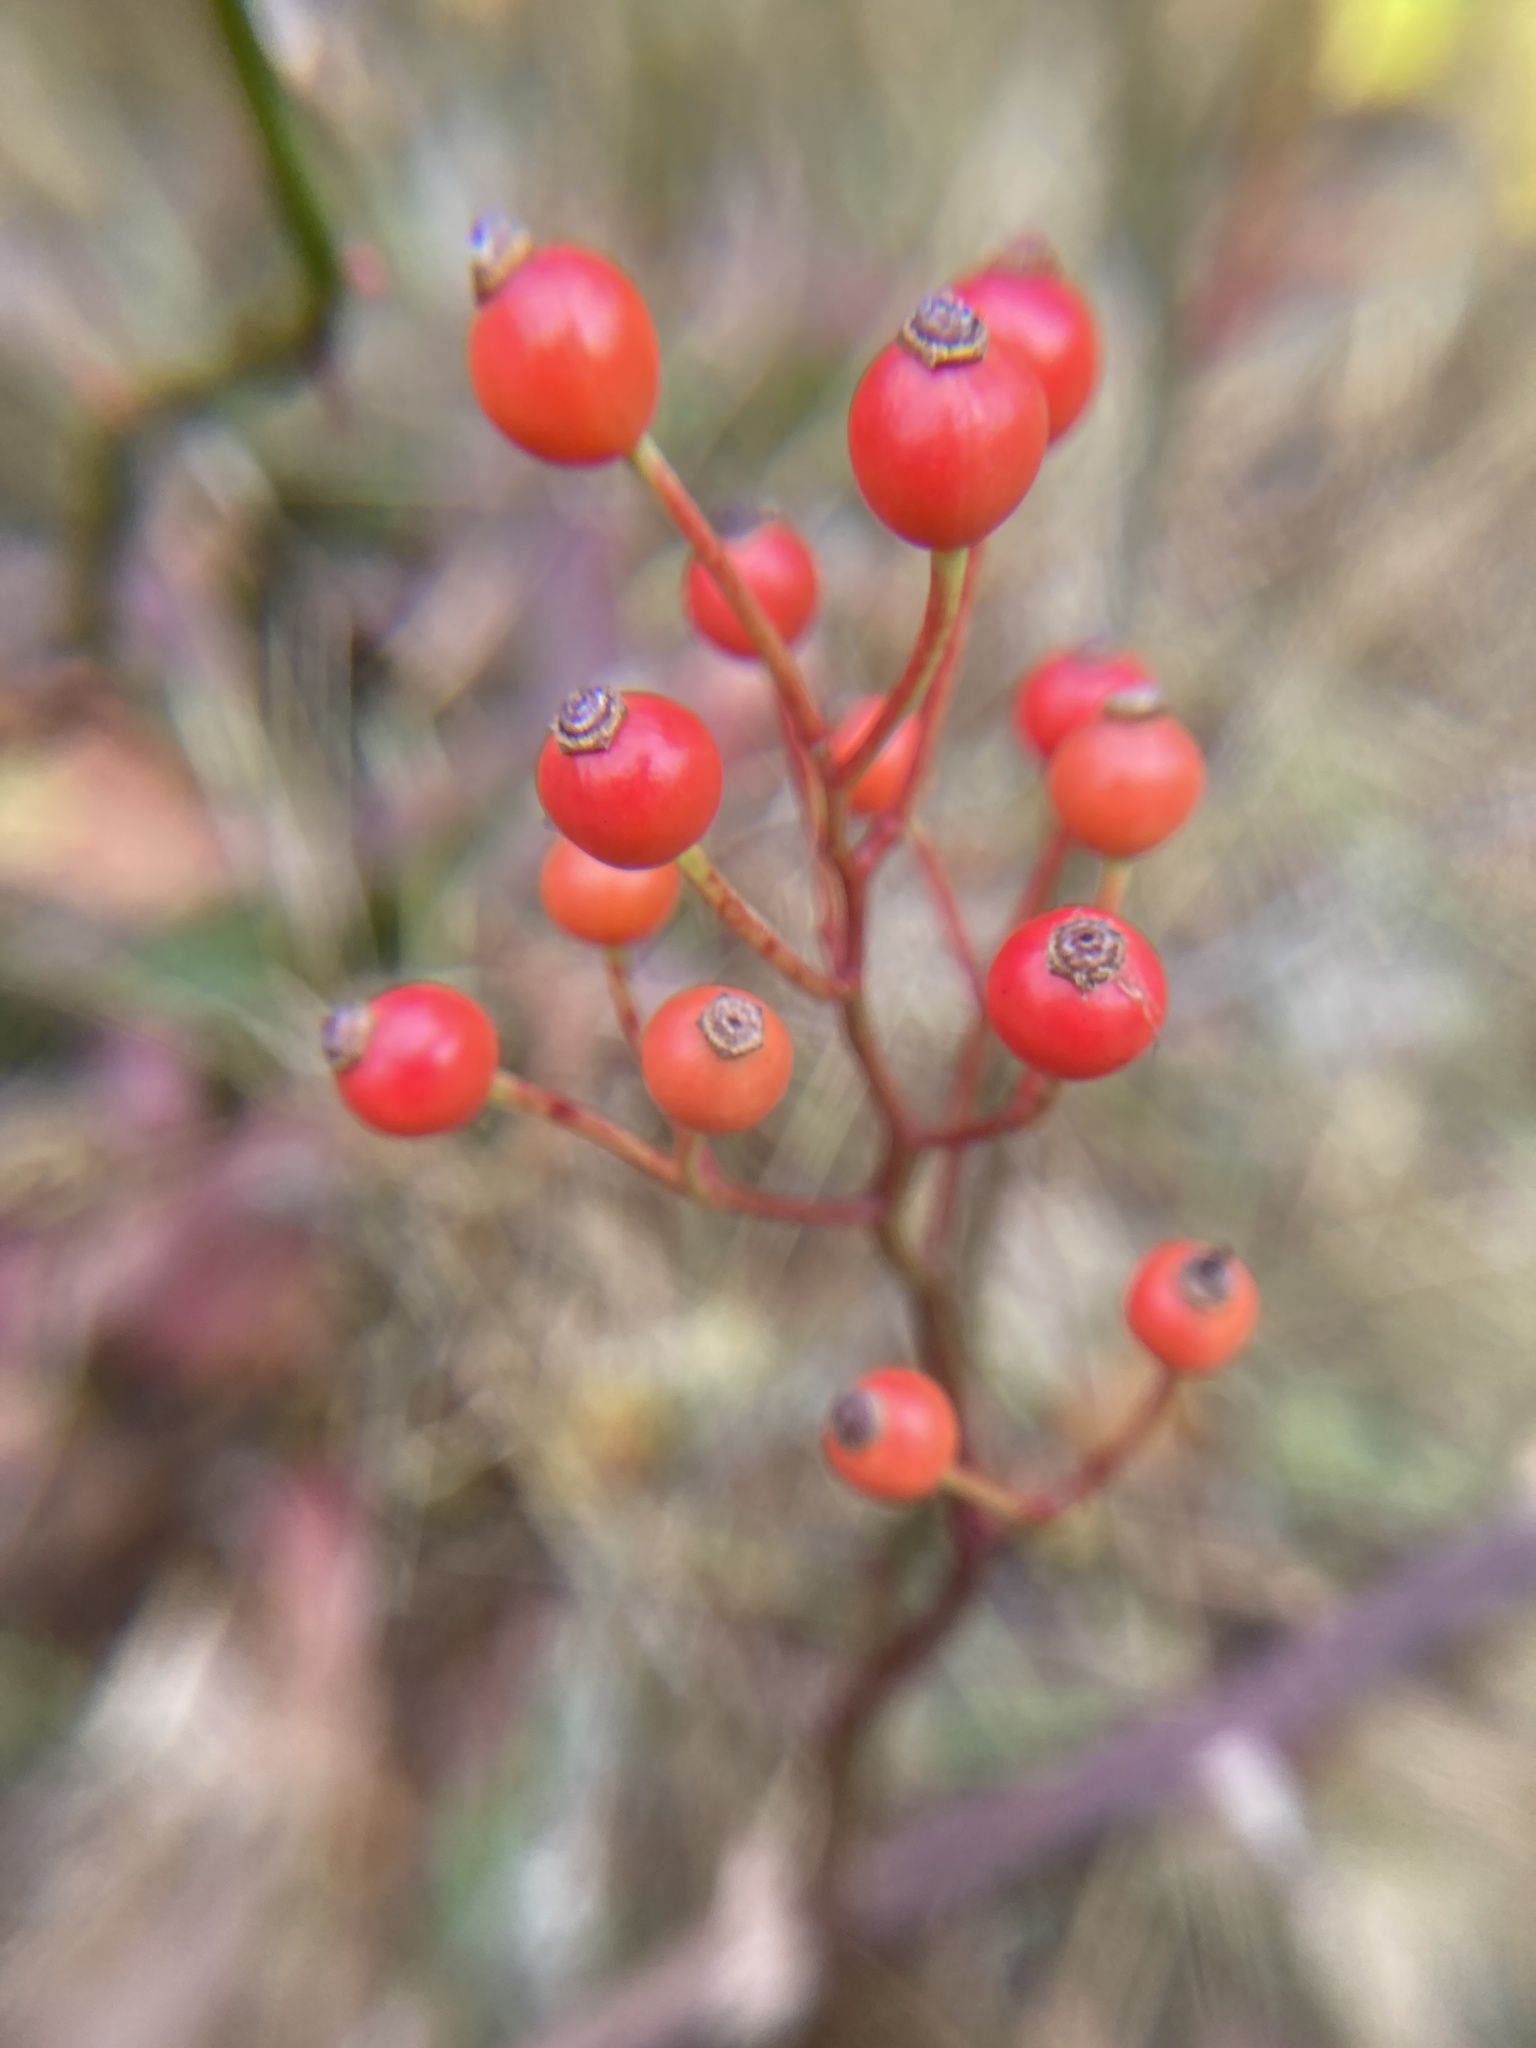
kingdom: Plantae
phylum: Tracheophyta
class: Magnoliopsida
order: Rosales
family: Rosaceae
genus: Rosa
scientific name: Rosa multiflora
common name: Multiflora rose
